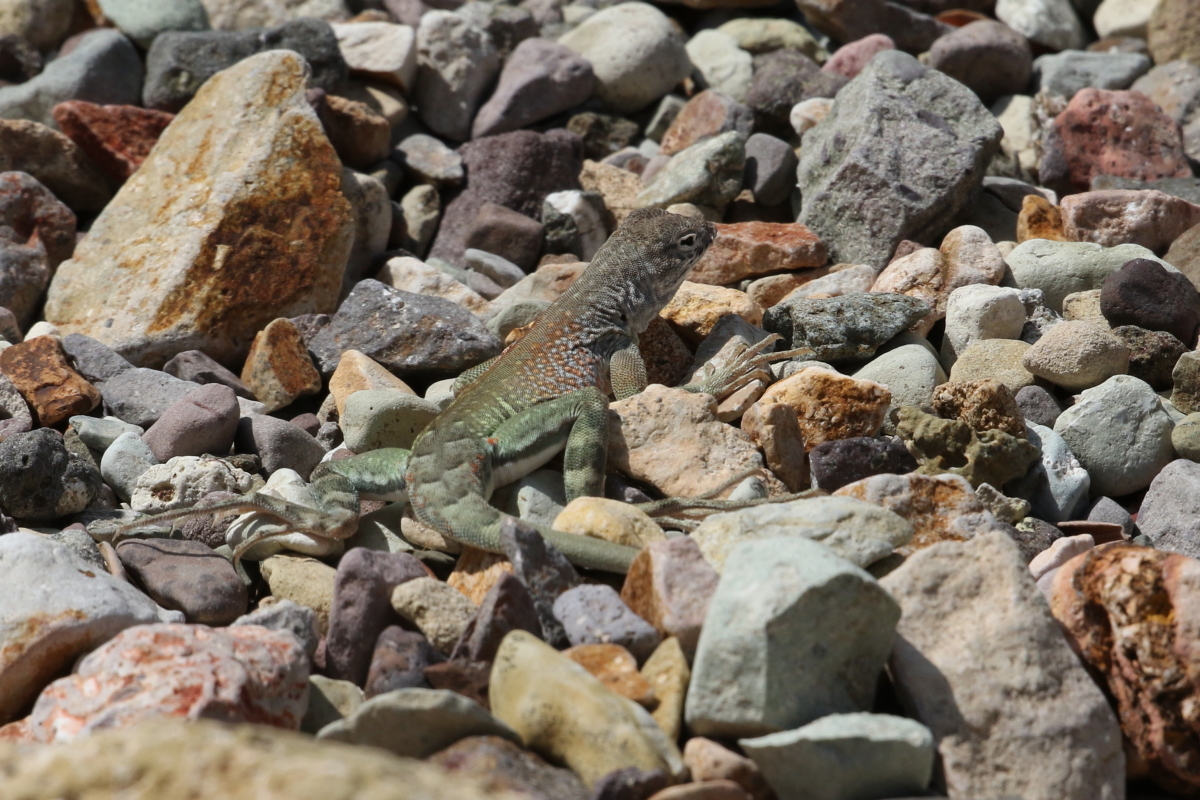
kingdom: Animalia
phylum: Chordata
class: Squamata
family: Phrynosomatidae
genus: Cophosaurus
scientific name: Cophosaurus texanus
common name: Greater earless lizard
